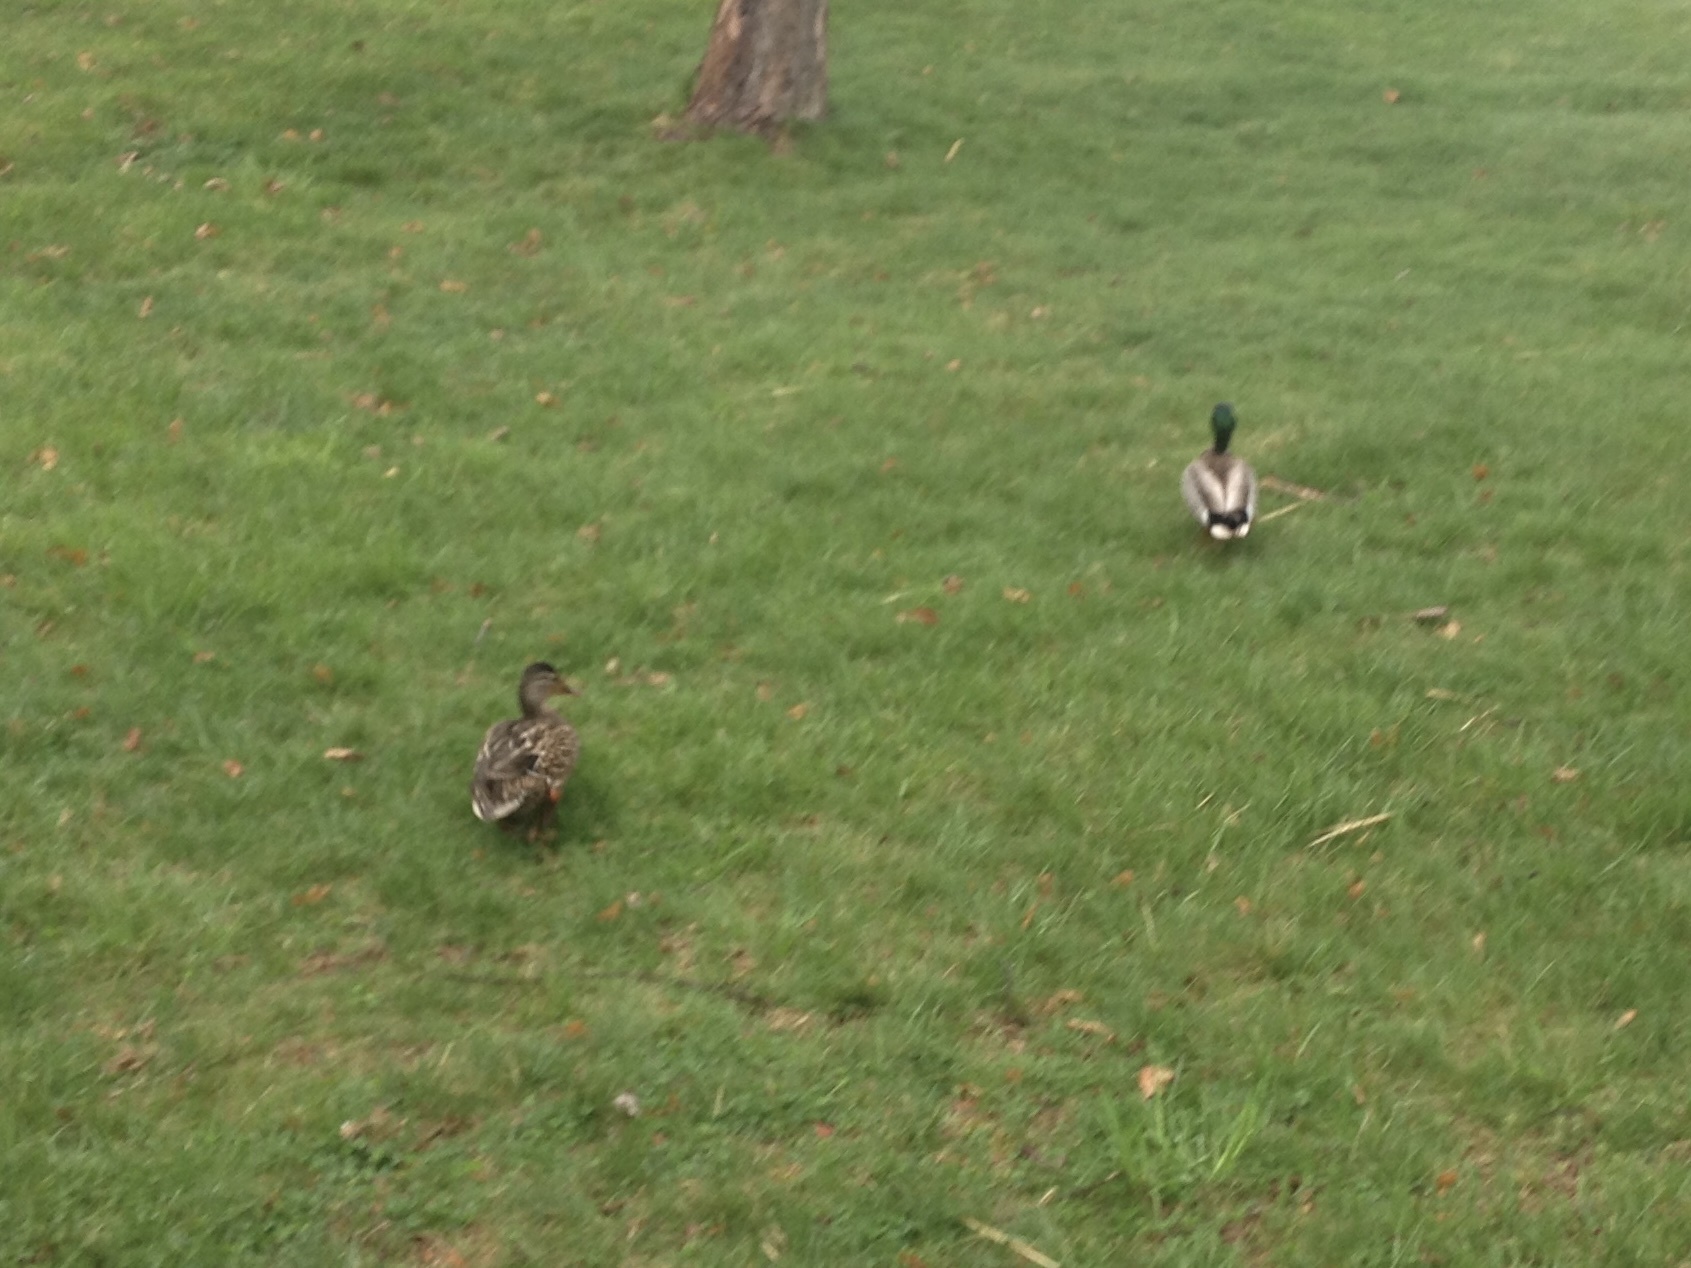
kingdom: Animalia
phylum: Chordata
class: Aves
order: Anseriformes
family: Anatidae
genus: Anas
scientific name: Anas platyrhynchos
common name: Mallard
